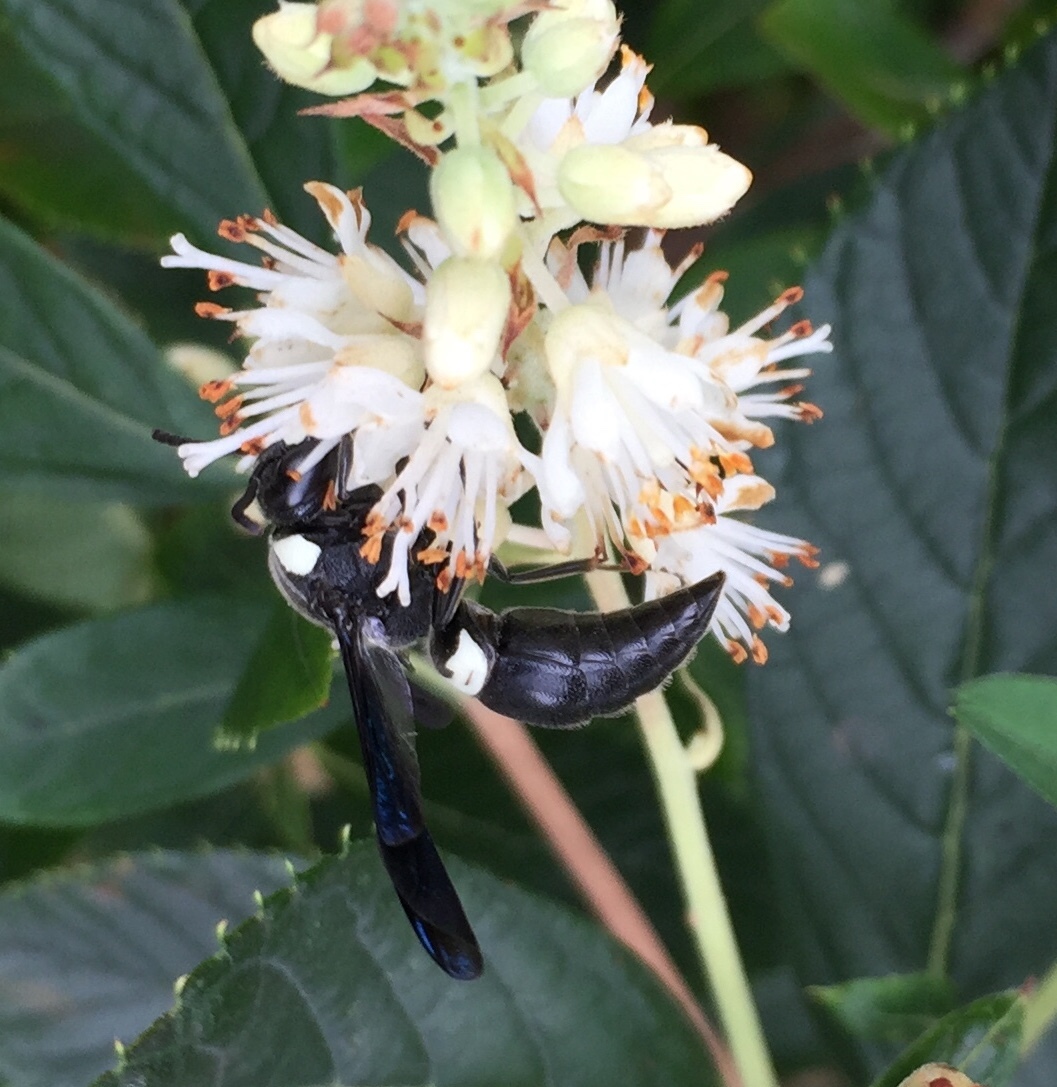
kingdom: Animalia
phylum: Arthropoda
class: Insecta
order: Hymenoptera
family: Eumenidae
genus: Monobia
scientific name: Monobia quadridens
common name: Four-toothed mason wasp
